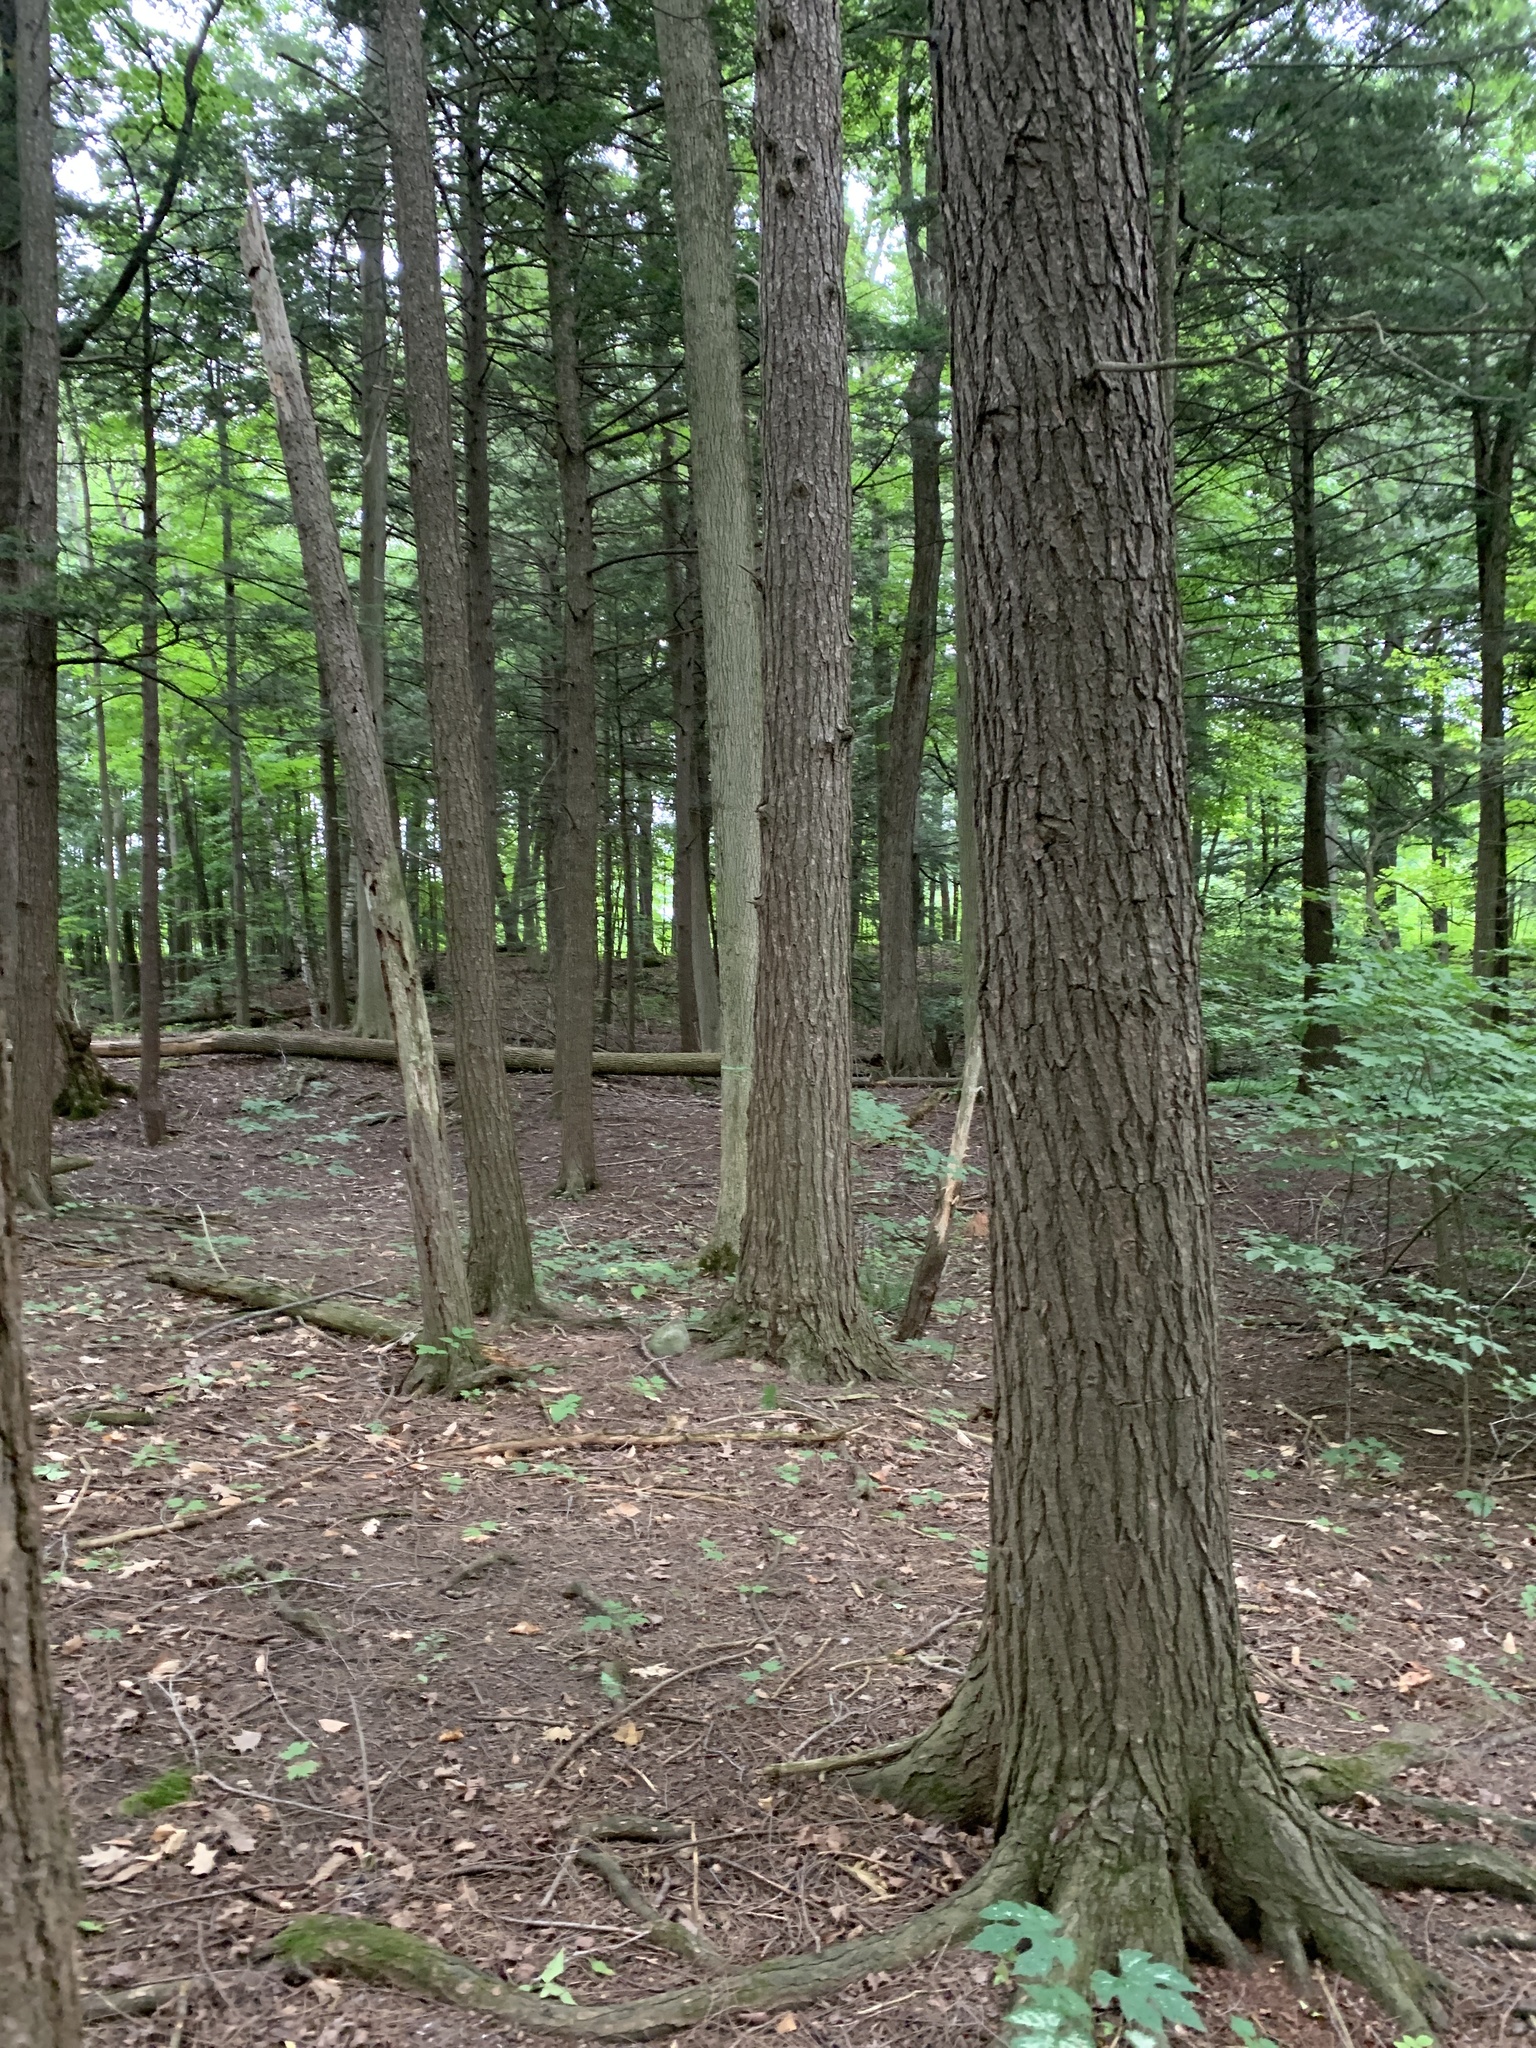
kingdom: Plantae
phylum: Tracheophyta
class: Pinopsida
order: Pinales
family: Pinaceae
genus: Tsuga
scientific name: Tsuga canadensis
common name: Eastern hemlock
